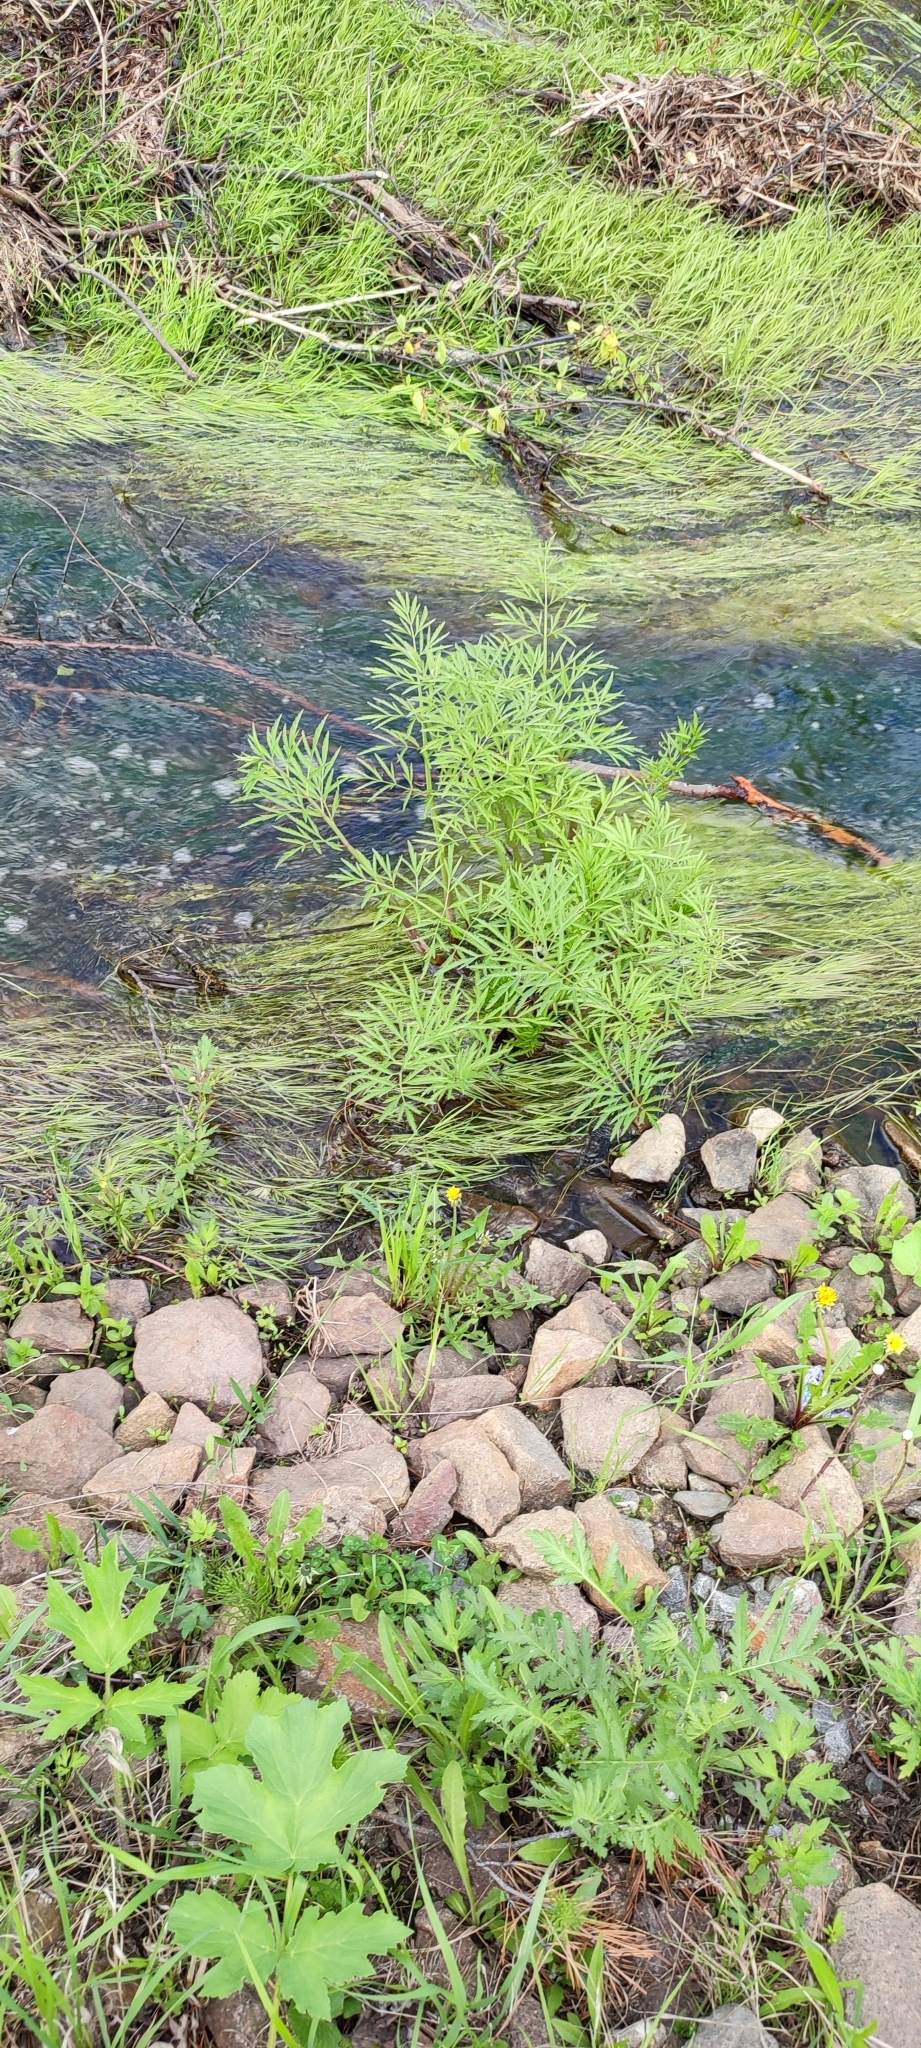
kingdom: Plantae
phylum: Tracheophyta
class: Magnoliopsida
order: Apiales
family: Apiaceae
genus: Cicuta
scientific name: Cicuta virosa
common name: Cowbane
